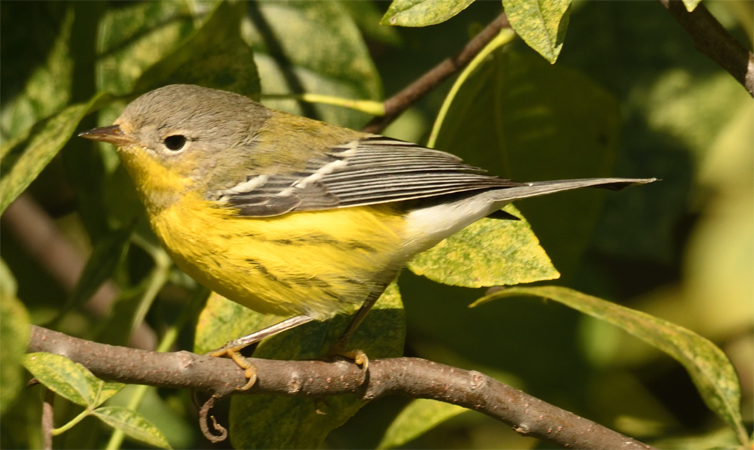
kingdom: Animalia
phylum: Chordata
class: Aves
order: Passeriformes
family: Parulidae
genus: Setophaga
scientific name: Setophaga magnolia
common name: Magnolia warbler
